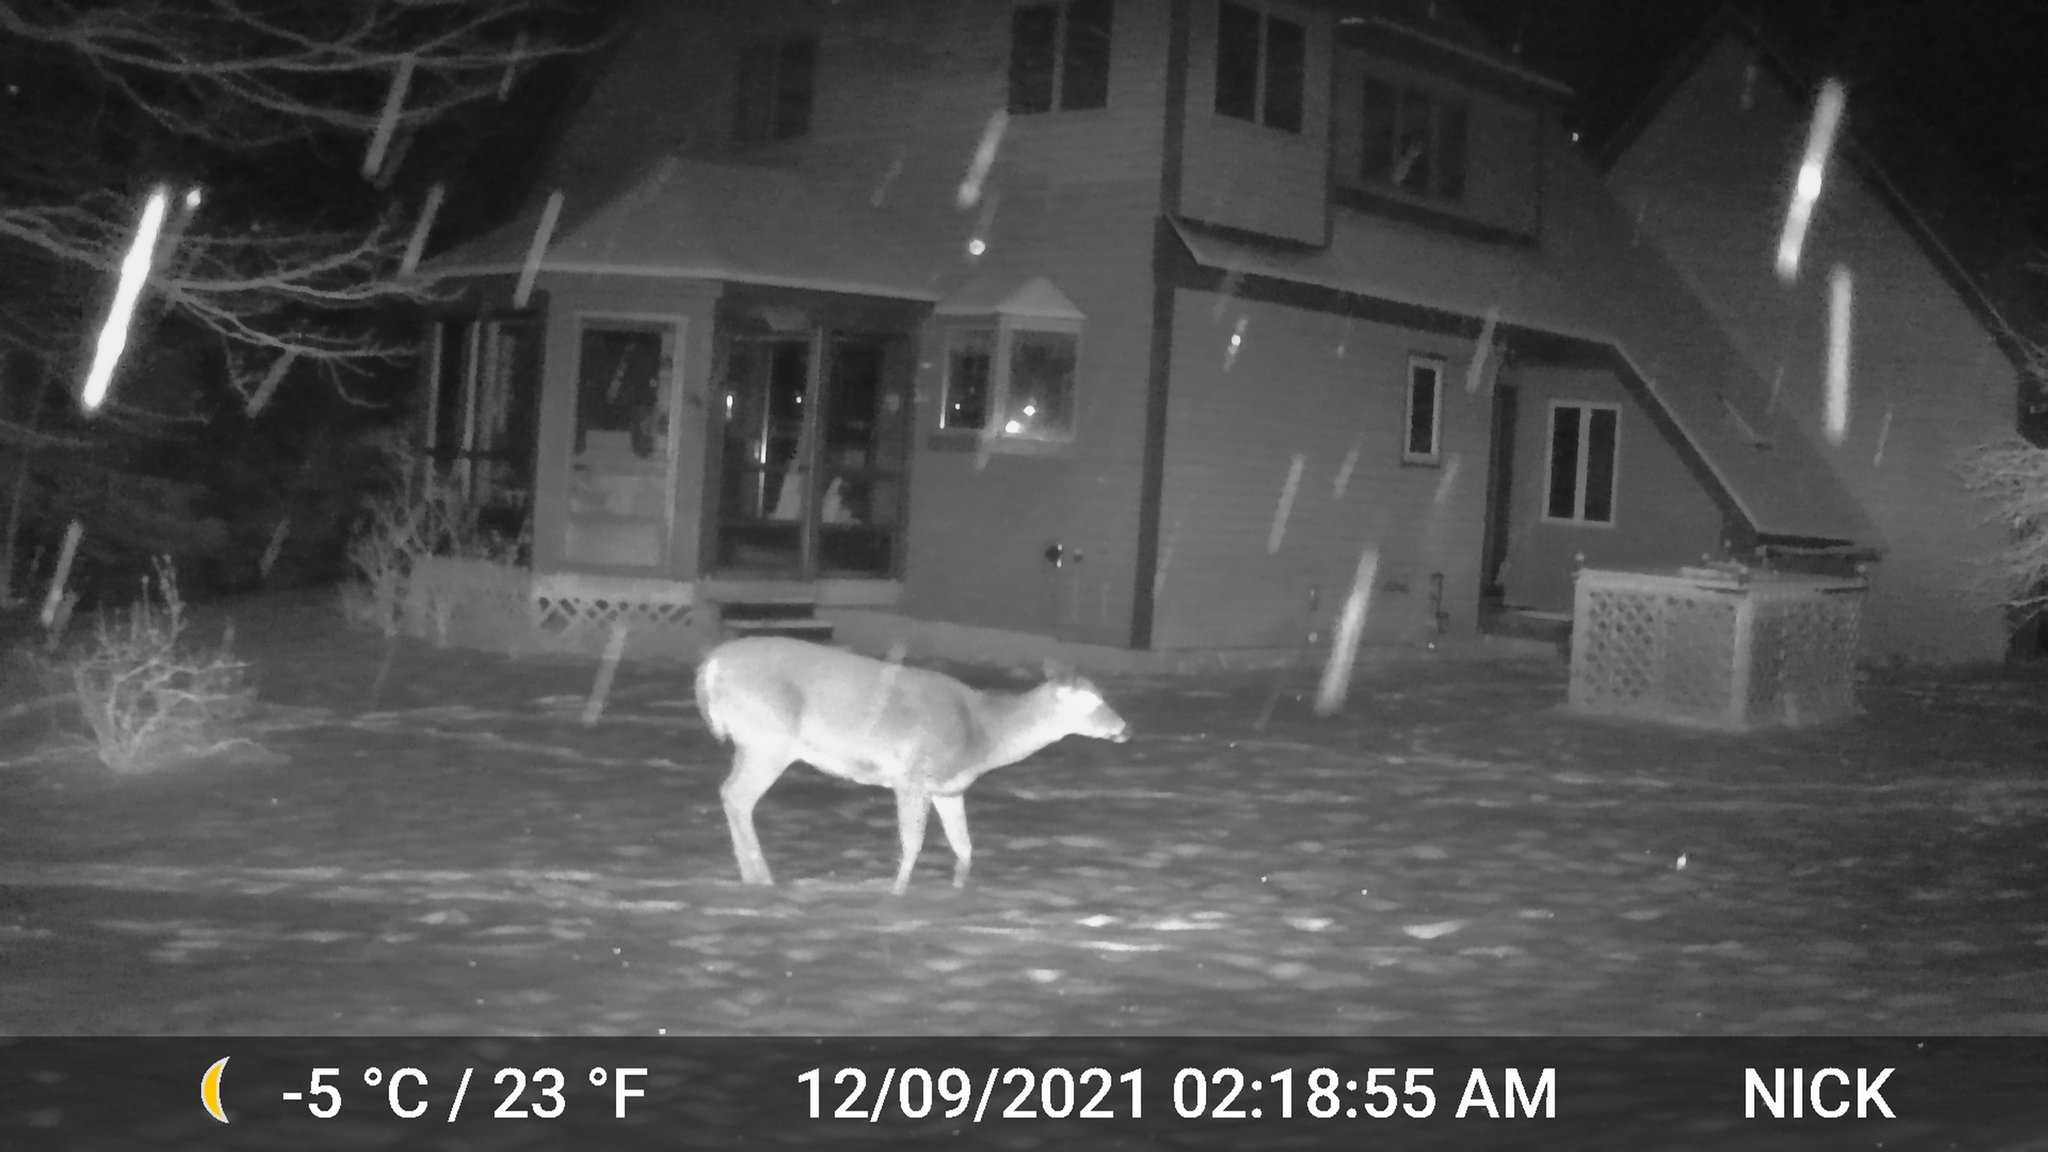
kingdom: Animalia
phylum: Chordata
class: Mammalia
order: Artiodactyla
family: Cervidae
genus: Odocoileus
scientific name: Odocoileus virginianus
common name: White-tailed deer
